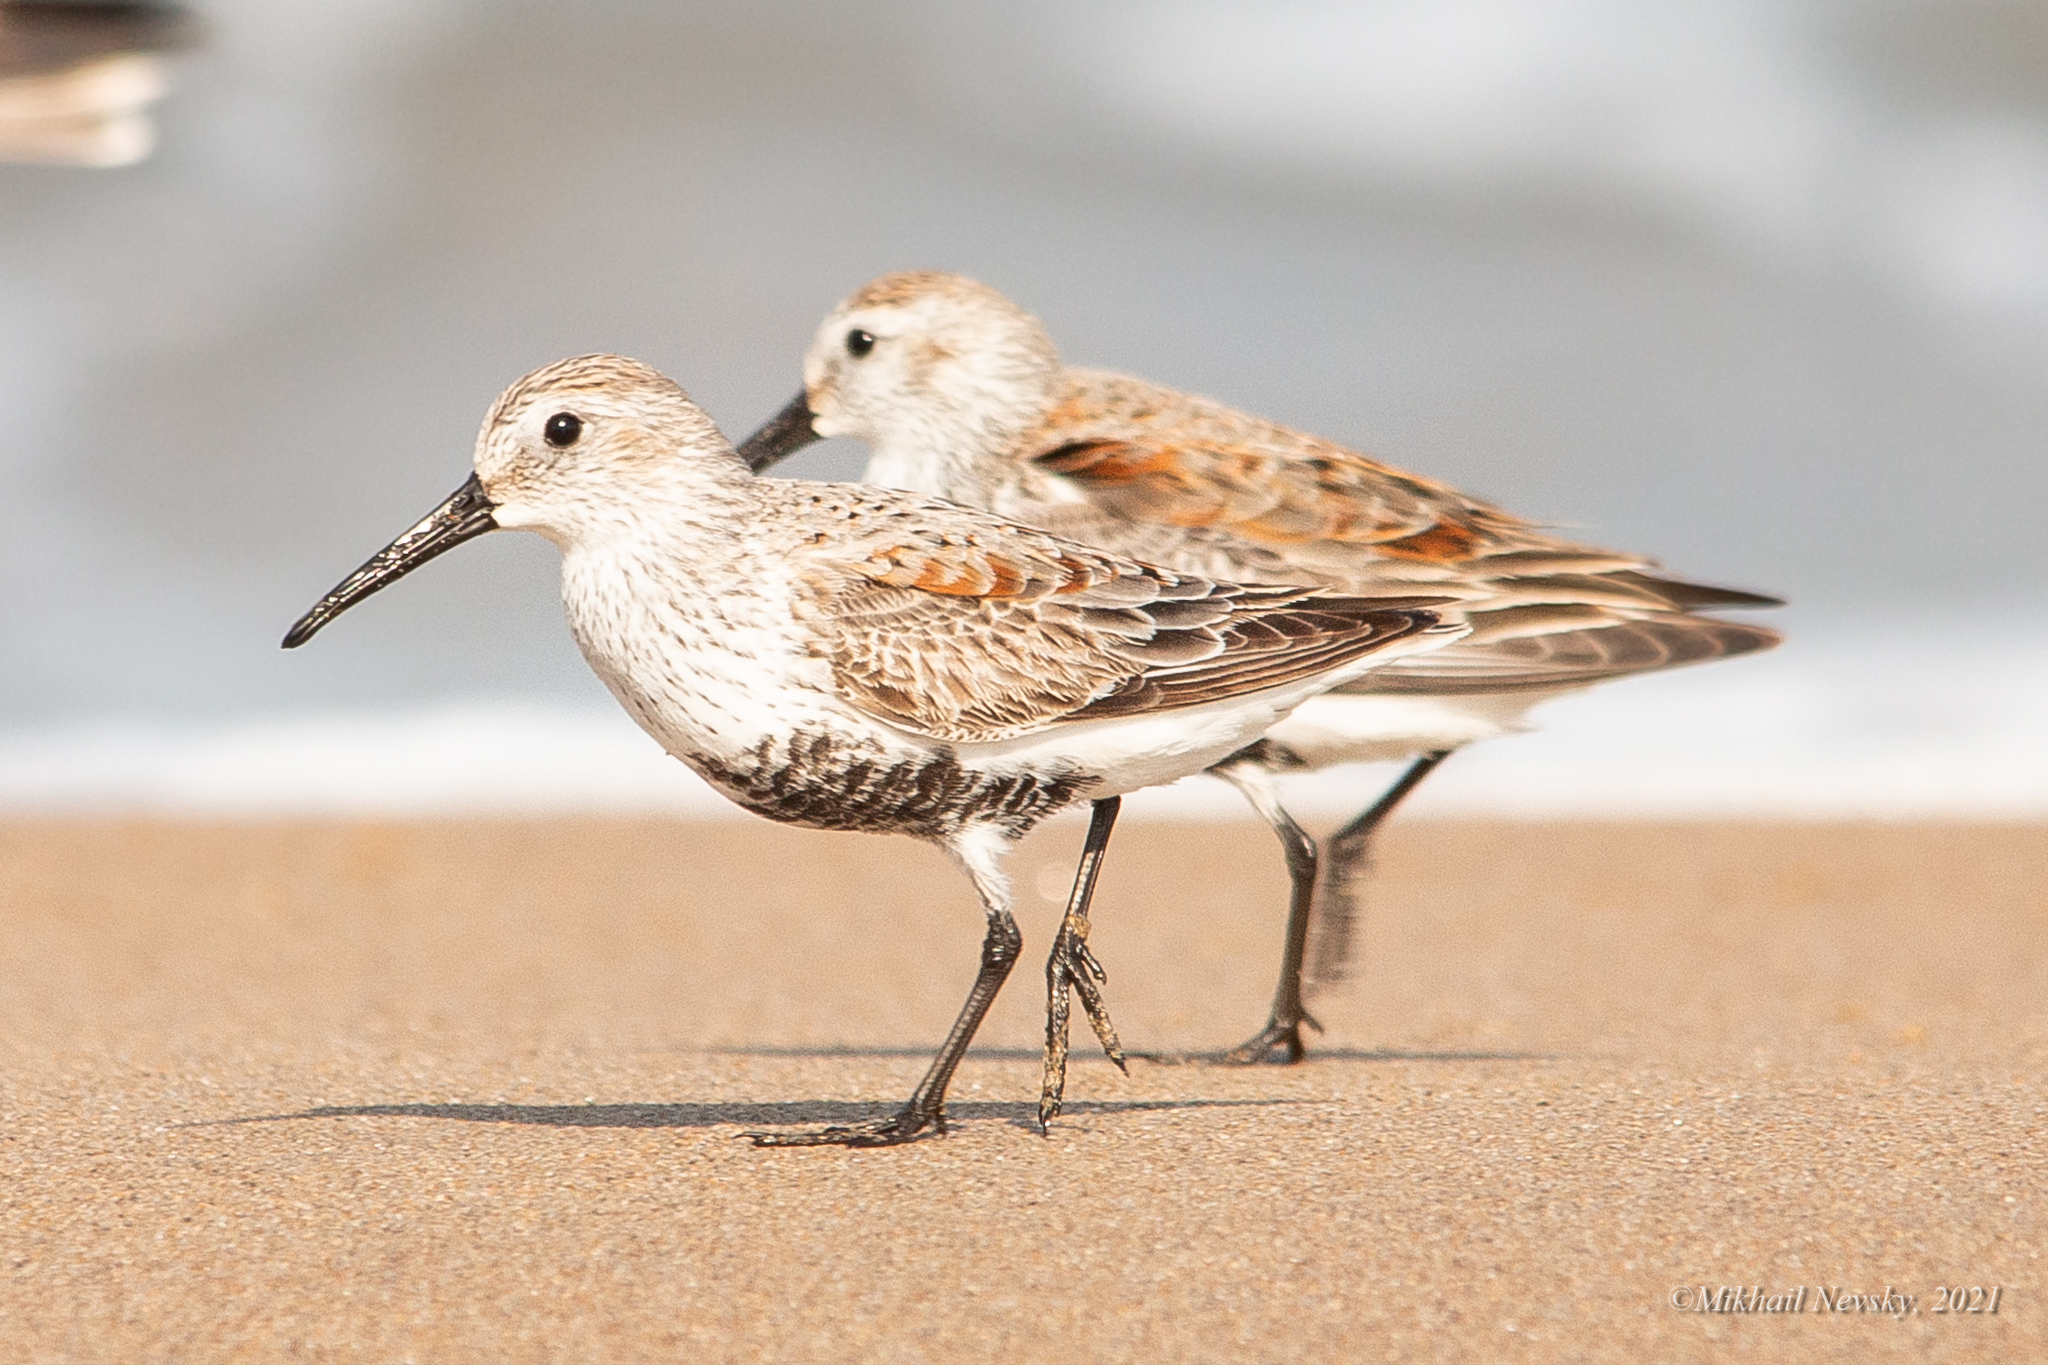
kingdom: Animalia
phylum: Chordata
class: Aves
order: Charadriiformes
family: Scolopacidae
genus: Calidris
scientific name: Calidris alpina
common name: Dunlin
